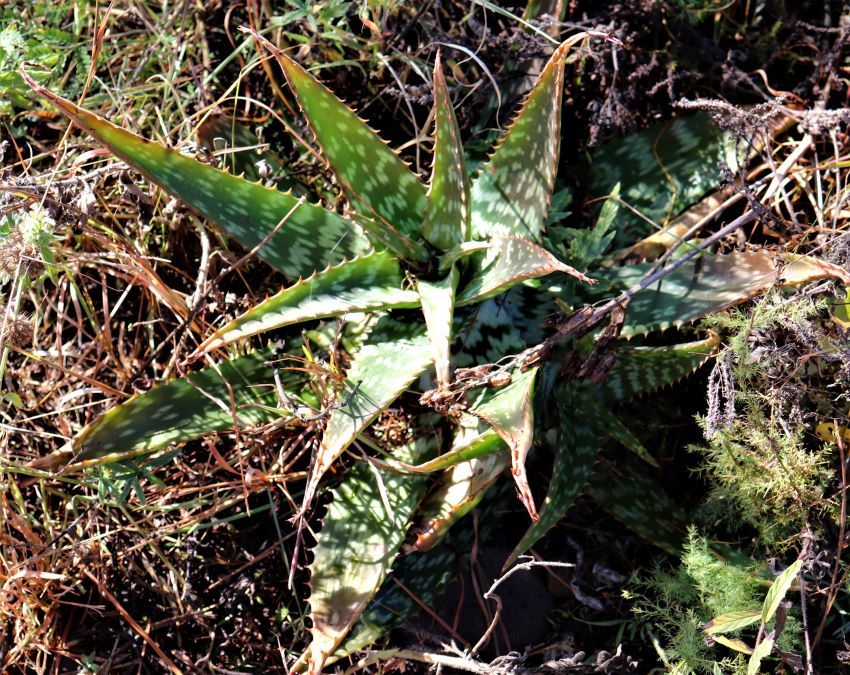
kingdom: Plantae
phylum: Tracheophyta
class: Liliopsida
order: Asparagales
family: Asphodelaceae
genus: Aloe
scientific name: Aloe greatheadii
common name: Greathead's aloe
